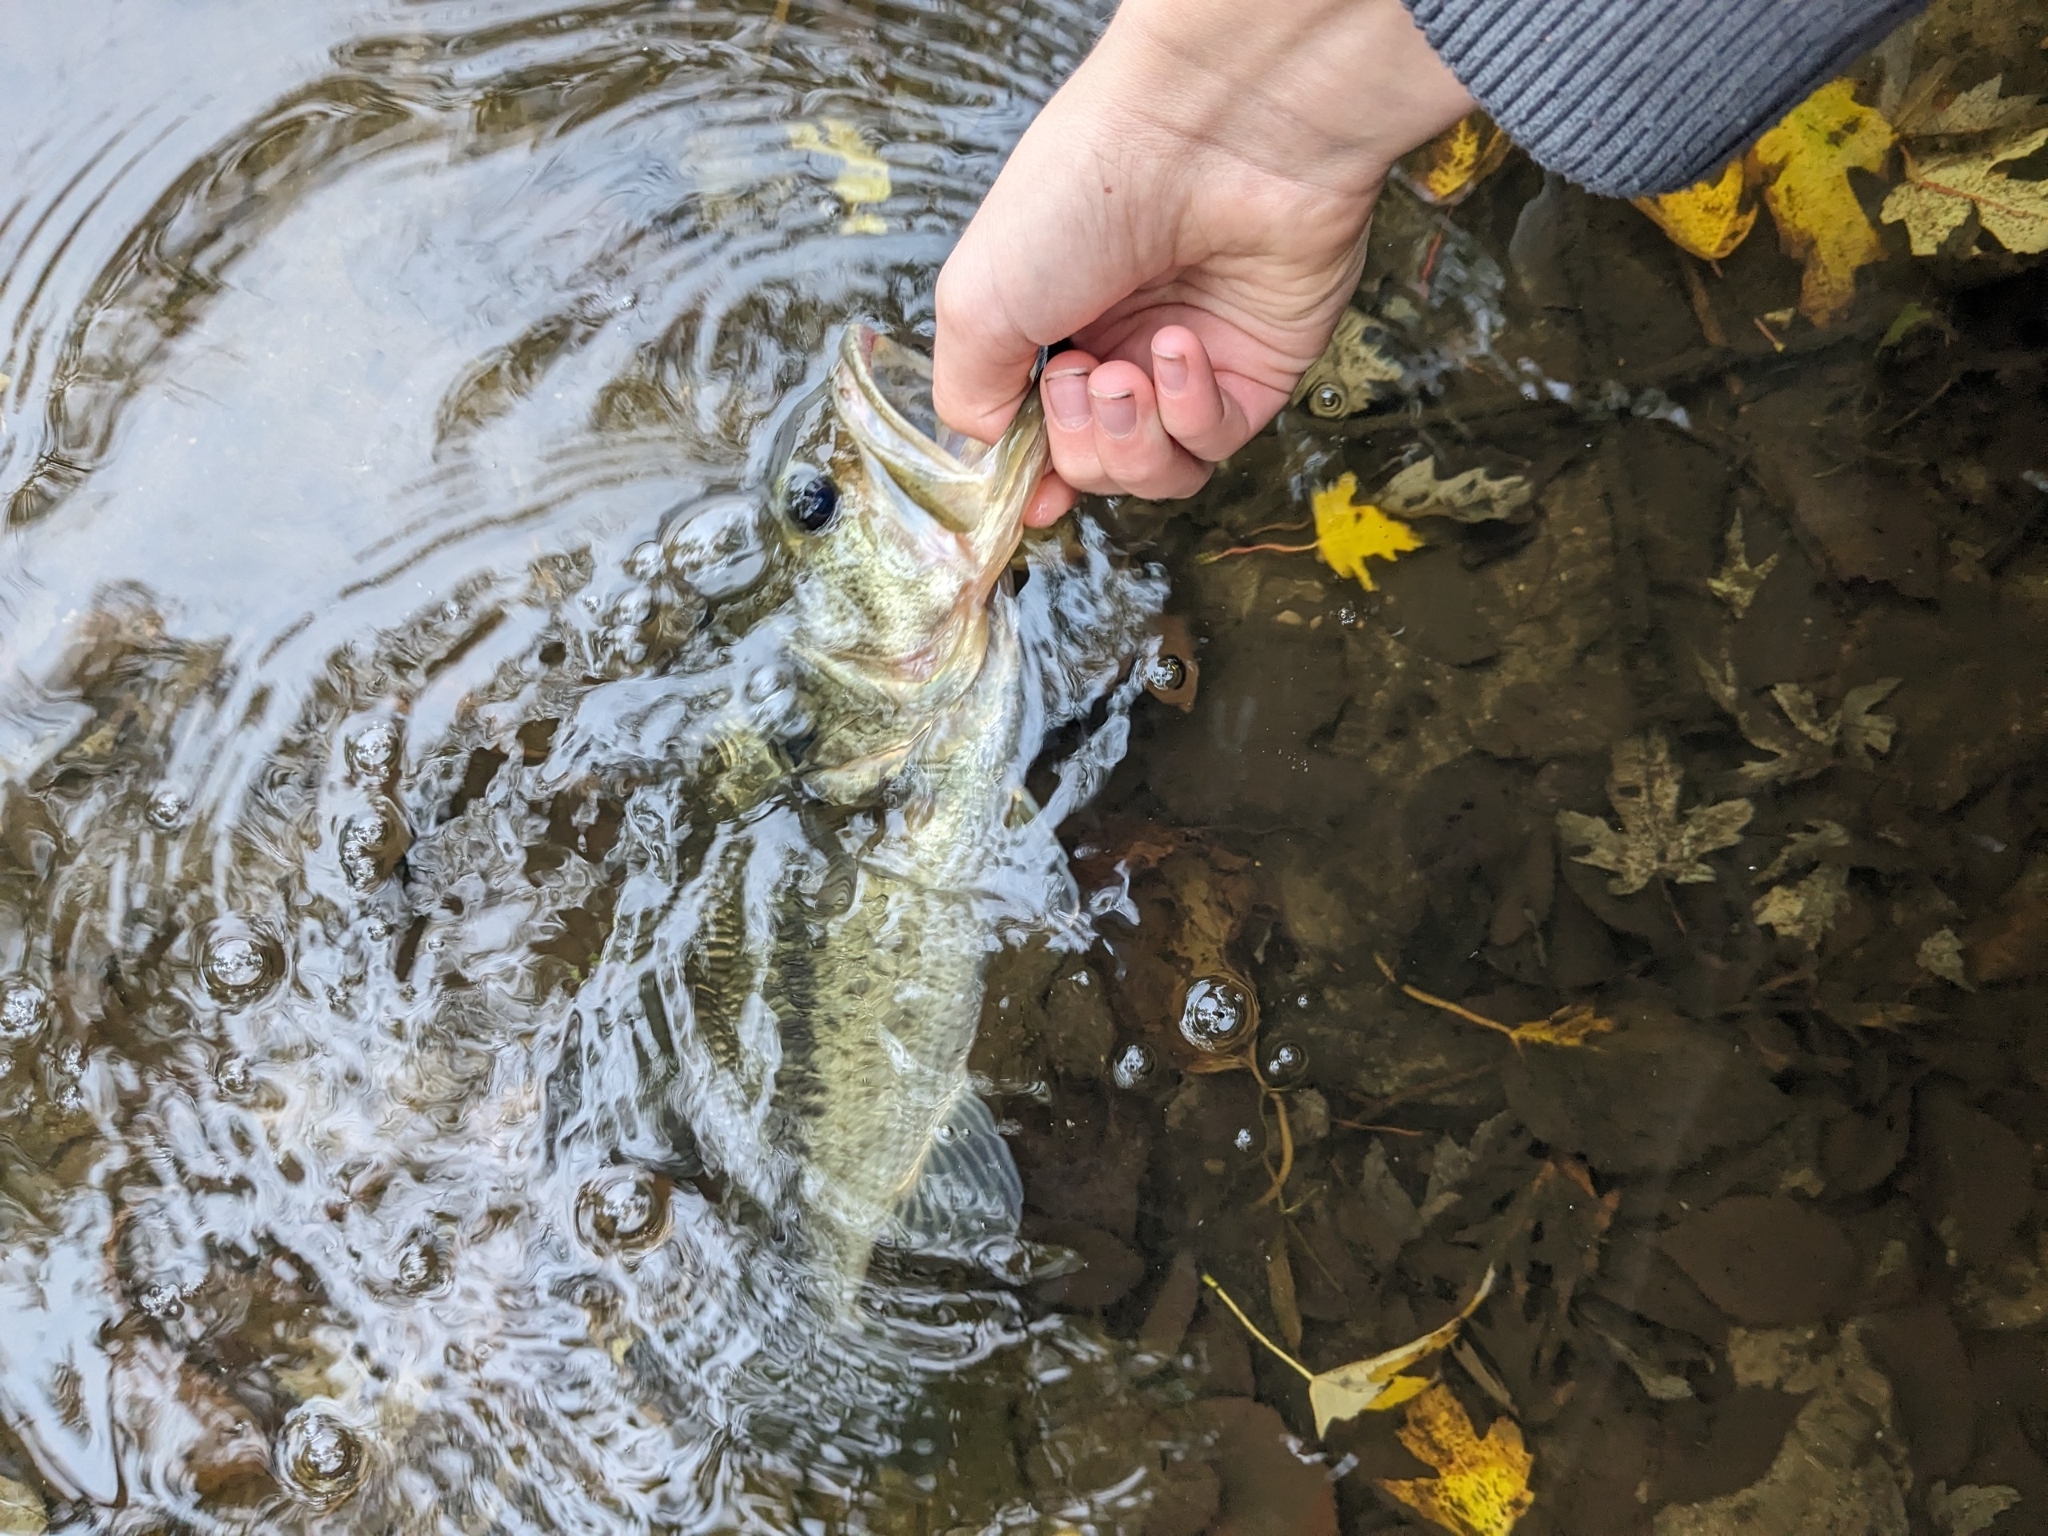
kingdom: Animalia
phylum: Chordata
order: Perciformes
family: Centrarchidae
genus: Micropterus
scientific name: Micropterus
